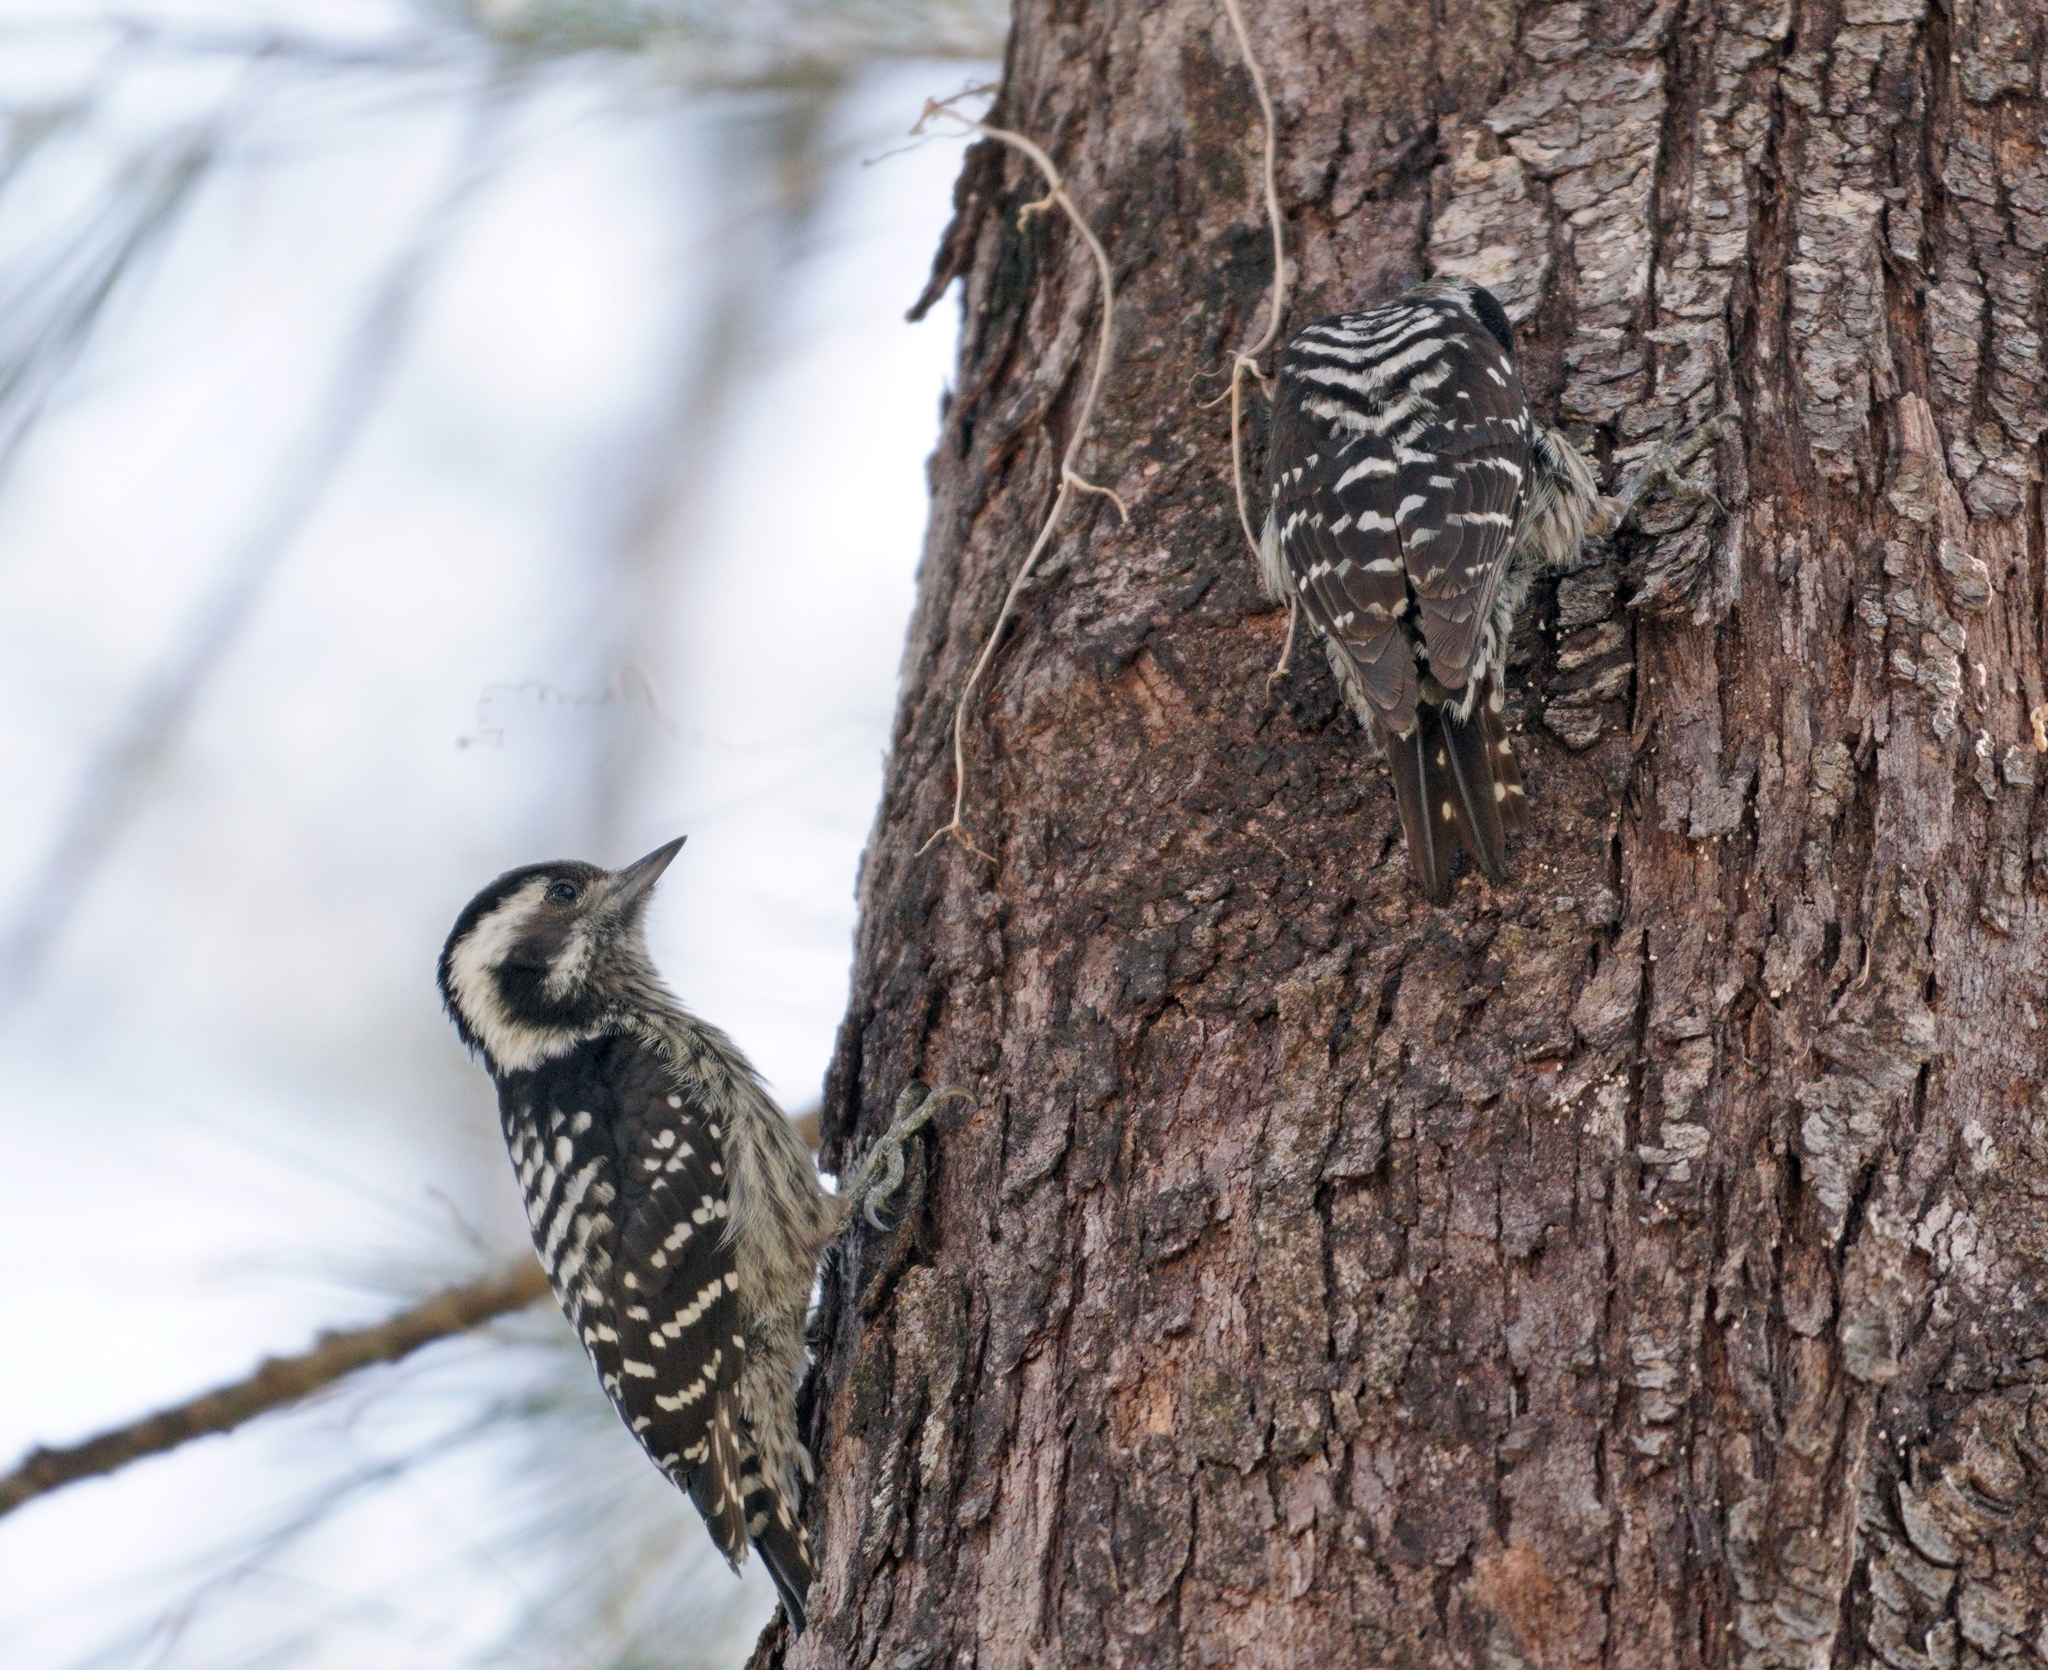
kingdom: Animalia
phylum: Chordata
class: Aves
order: Piciformes
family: Picidae
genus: Yungipicus
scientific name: Yungipicus canicapillus
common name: Grey-capped pygmy woodpecker
